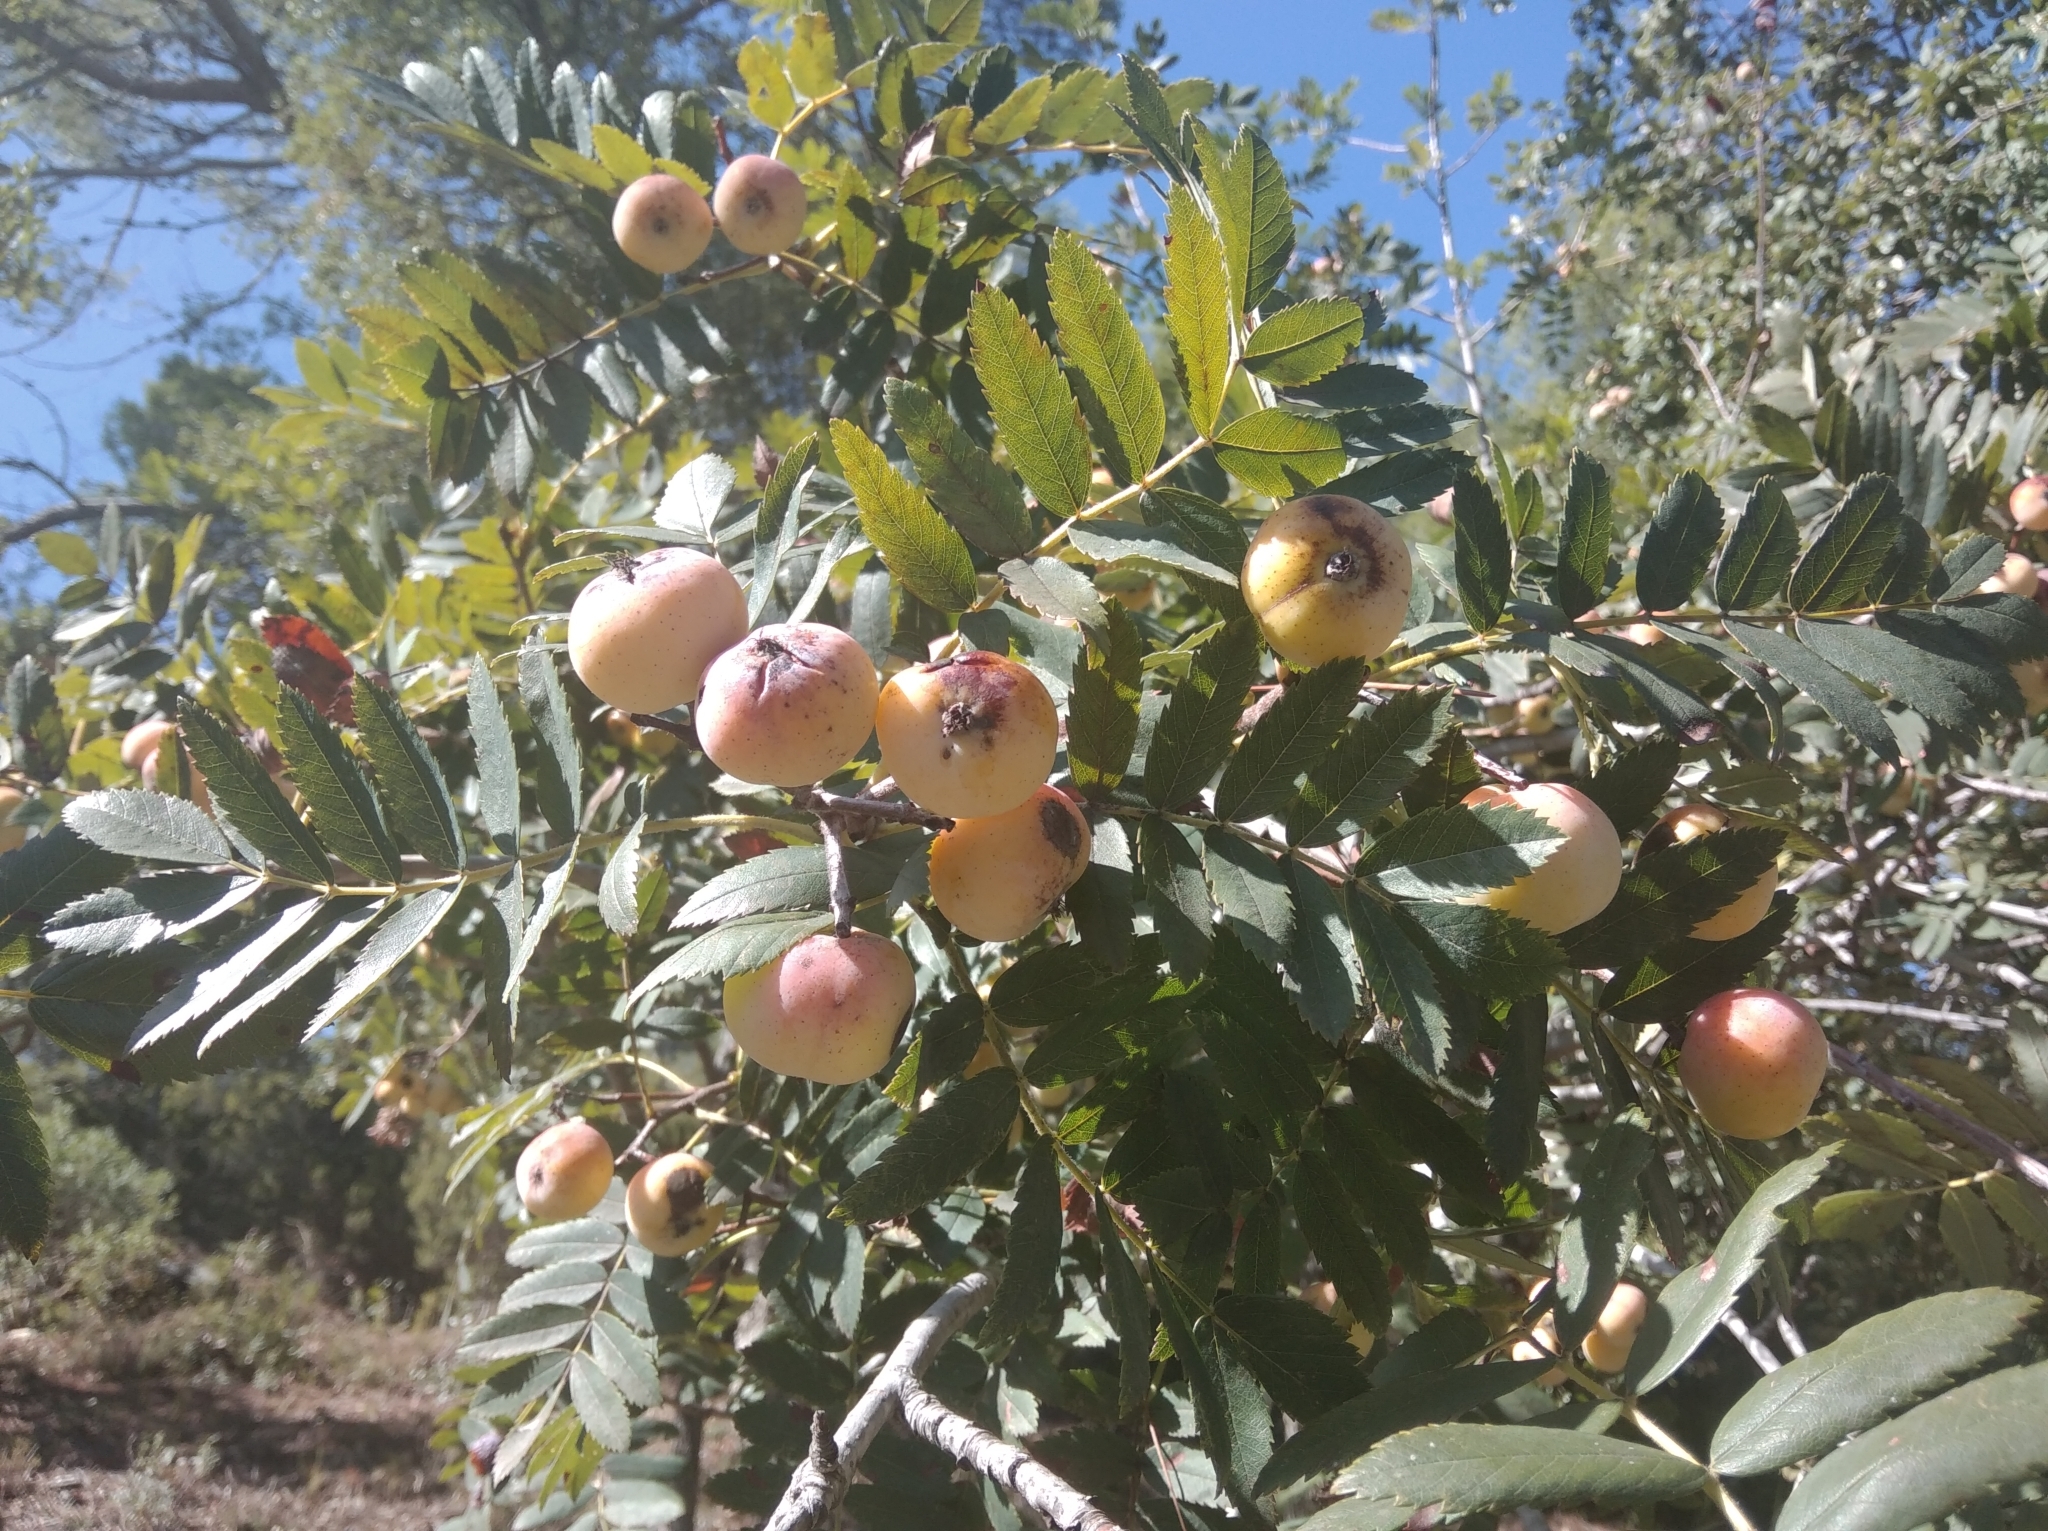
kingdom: Plantae
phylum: Tracheophyta
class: Magnoliopsida
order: Rosales
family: Rosaceae
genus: Cormus
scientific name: Cormus domestica
